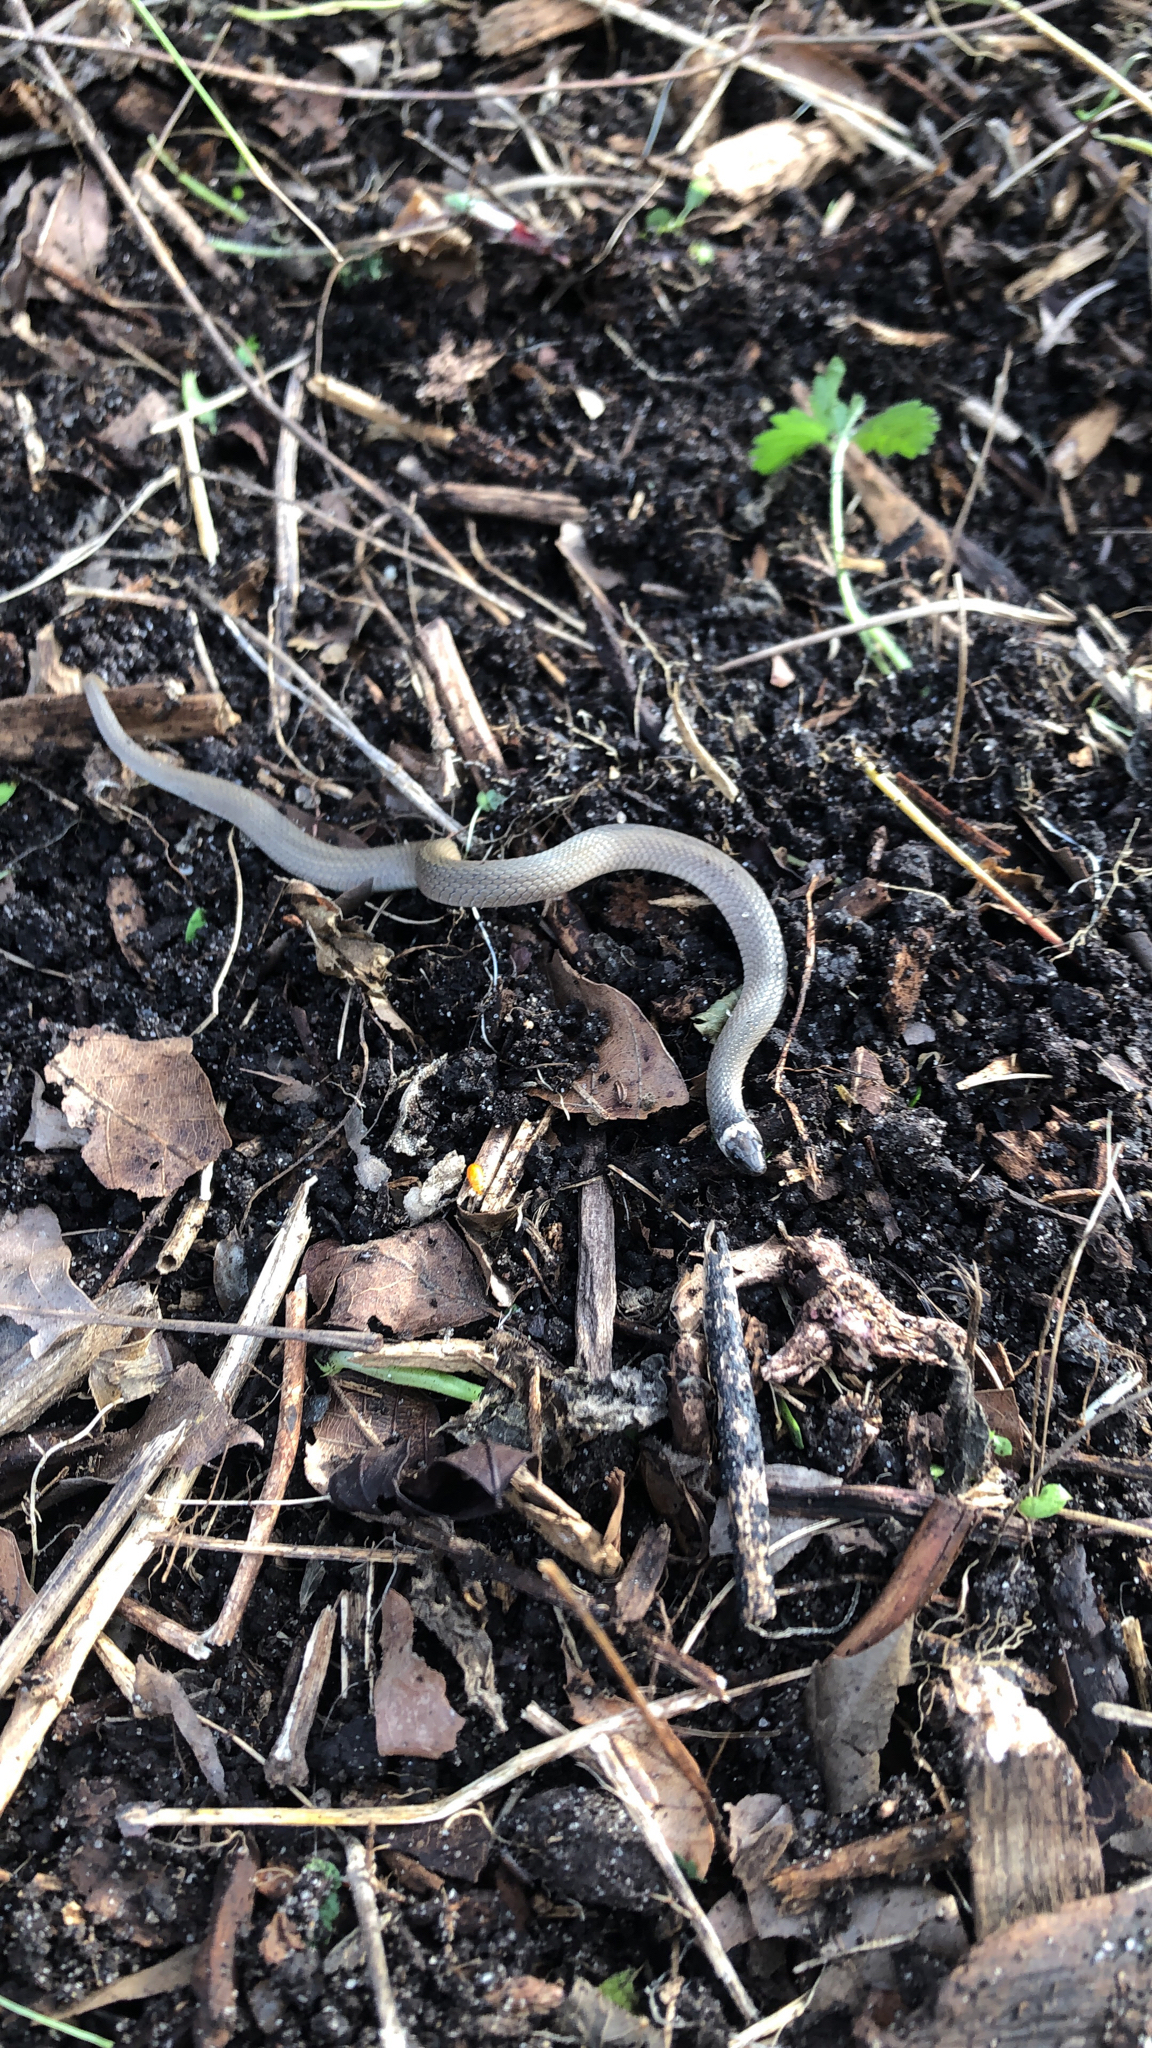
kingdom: Animalia
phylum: Chordata
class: Squamata
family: Colubridae
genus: Haldea
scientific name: Haldea striatula
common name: Rough earth snake
